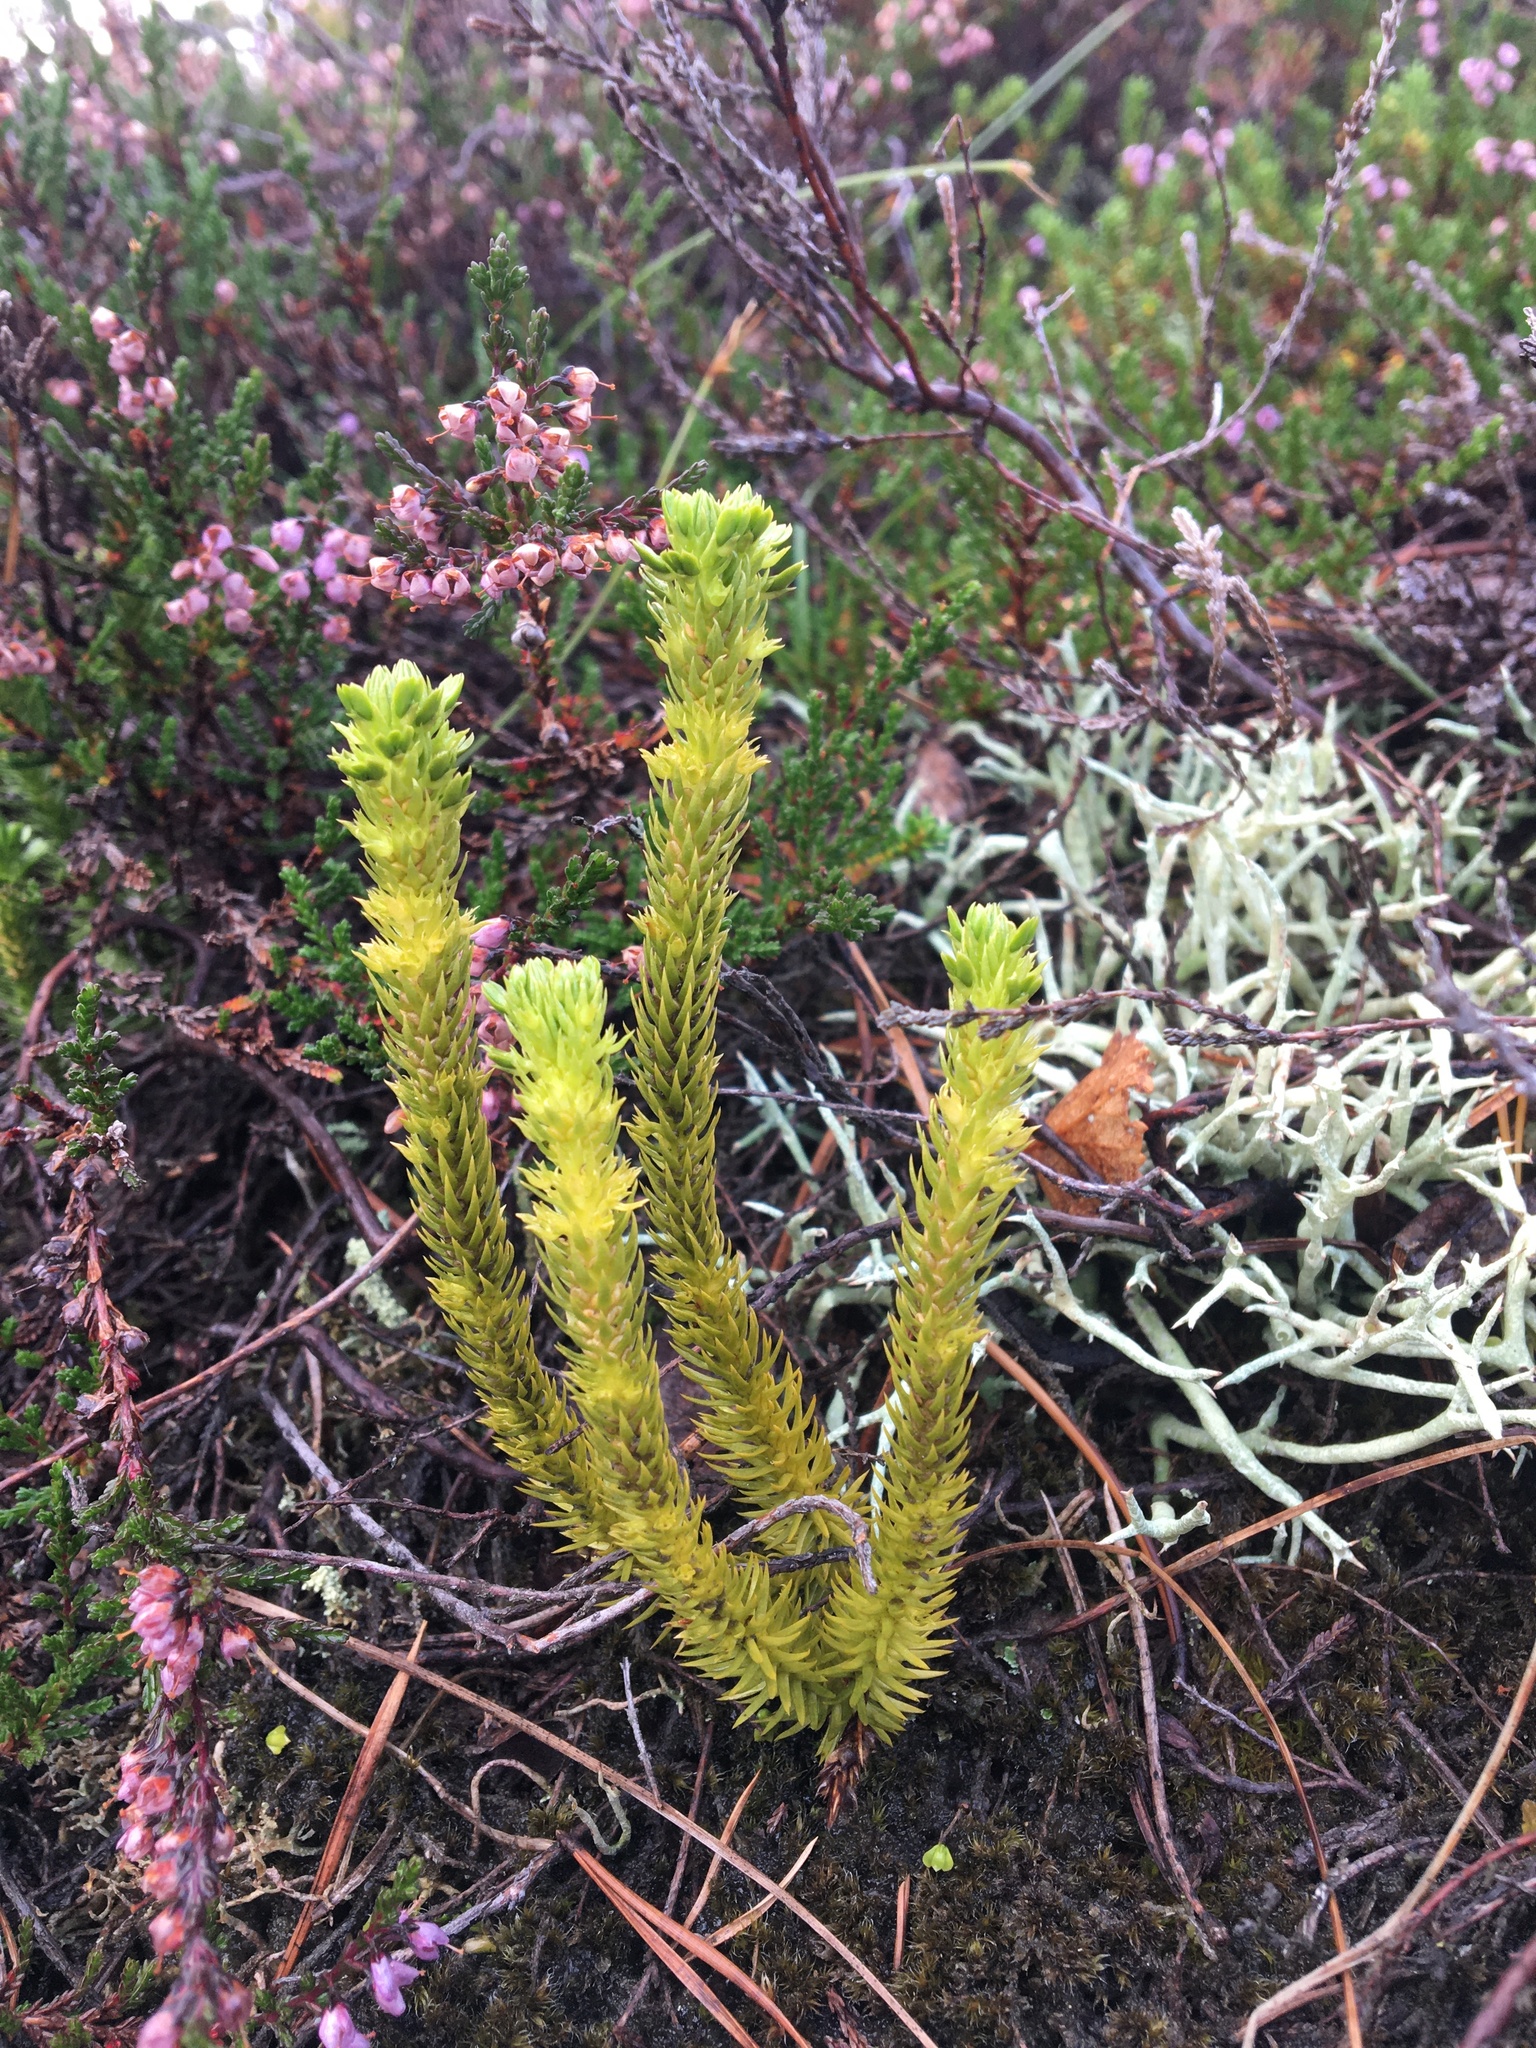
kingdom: Plantae
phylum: Tracheophyta
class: Lycopodiopsida
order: Lycopodiales
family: Lycopodiaceae
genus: Huperzia
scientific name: Huperzia selago
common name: Northern firmoss
